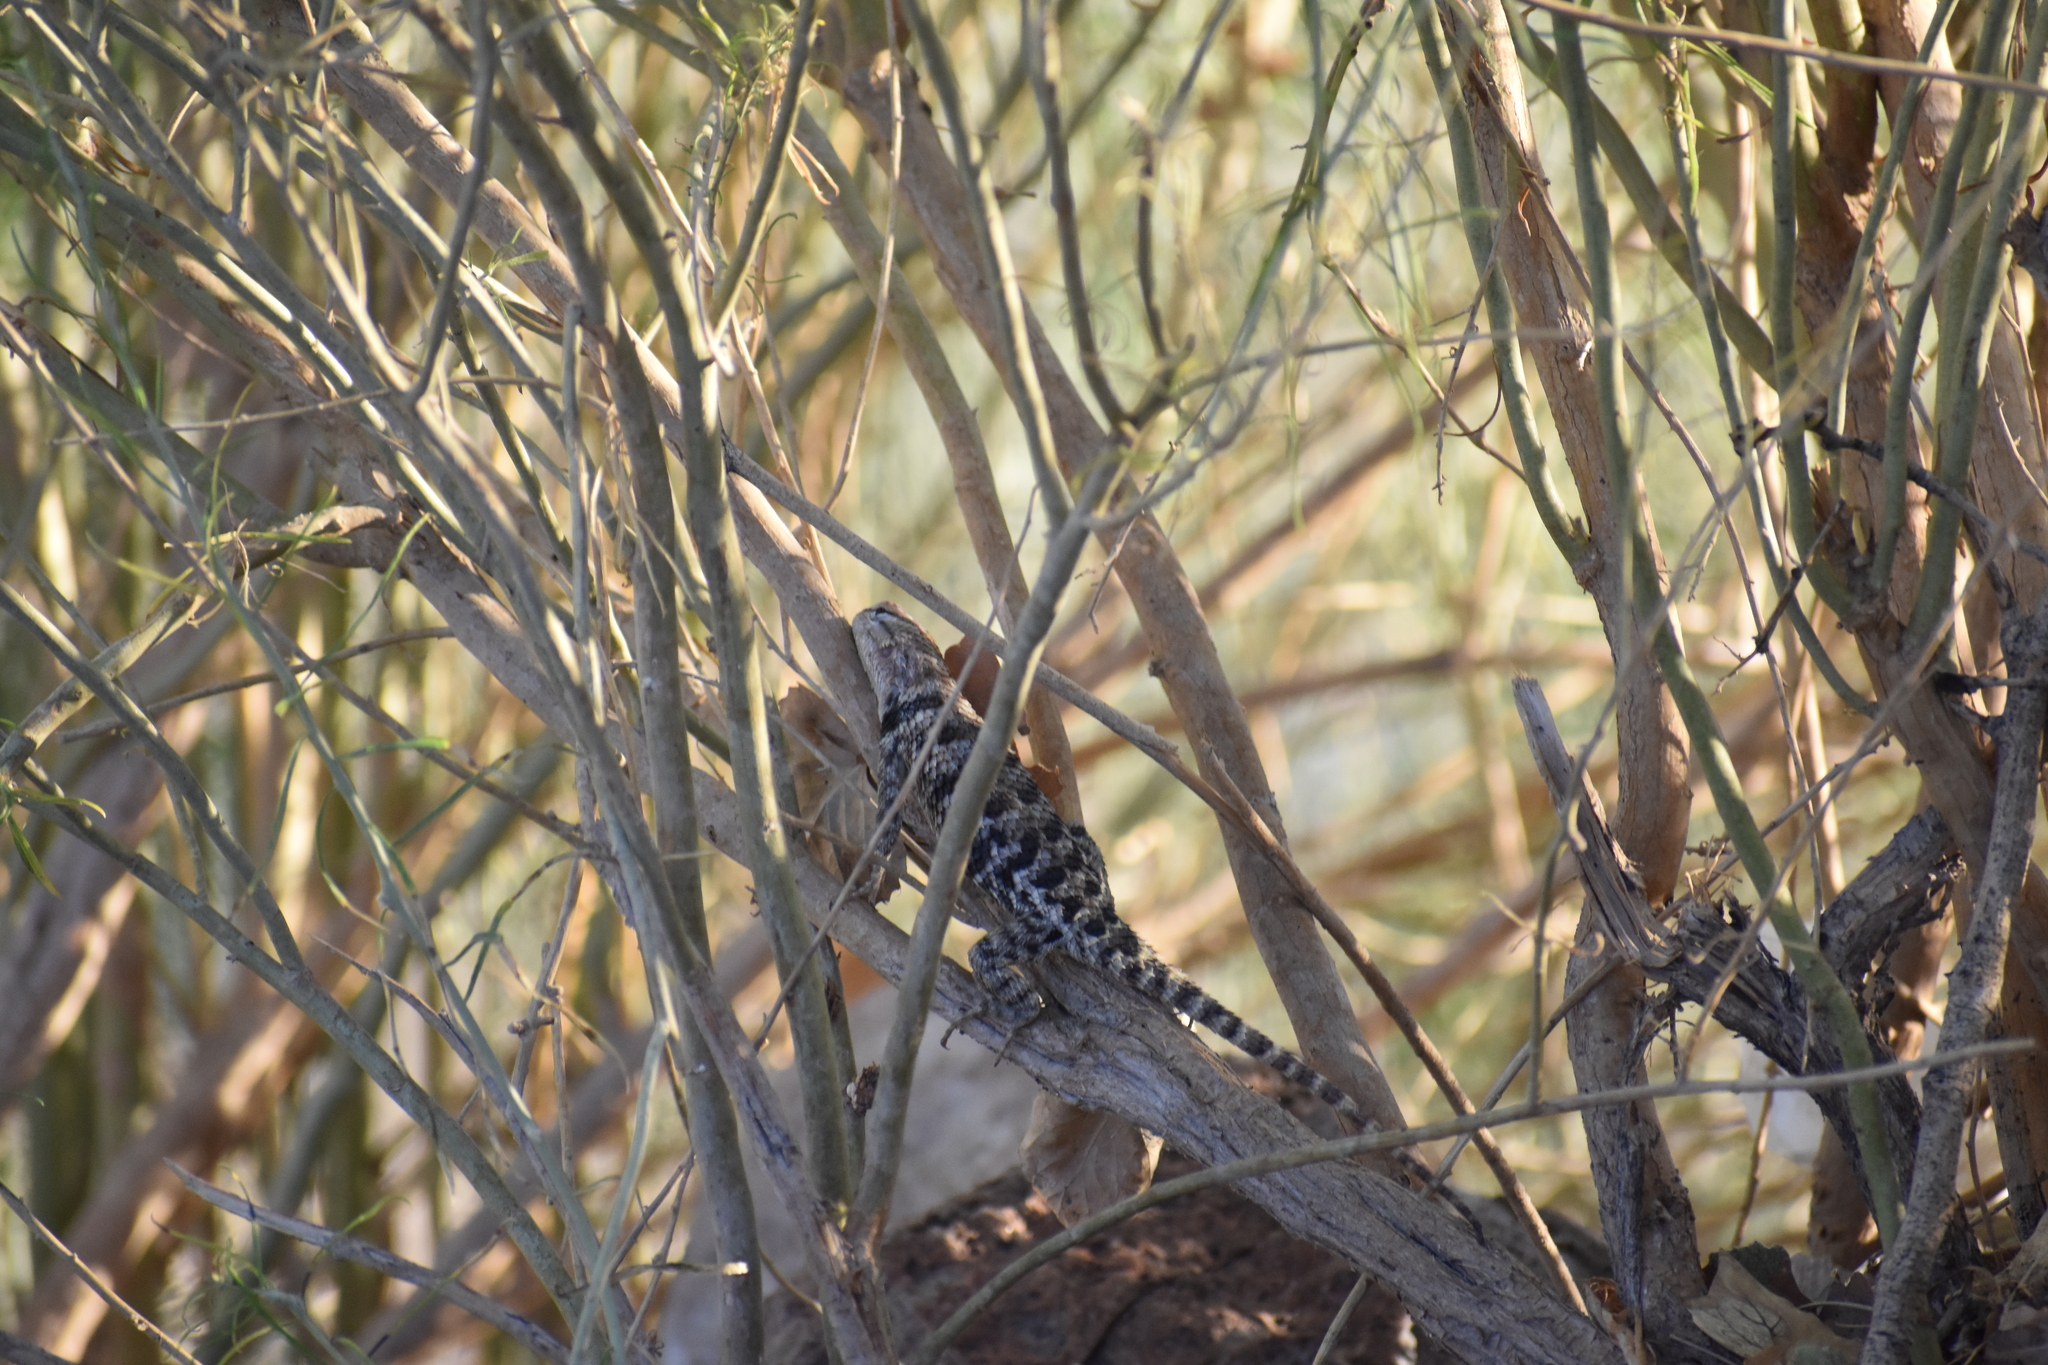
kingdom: Animalia
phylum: Chordata
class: Squamata
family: Phrynosomatidae
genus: Sceloporus
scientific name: Sceloporus uniformis
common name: Yellow-backed spiny lizard
